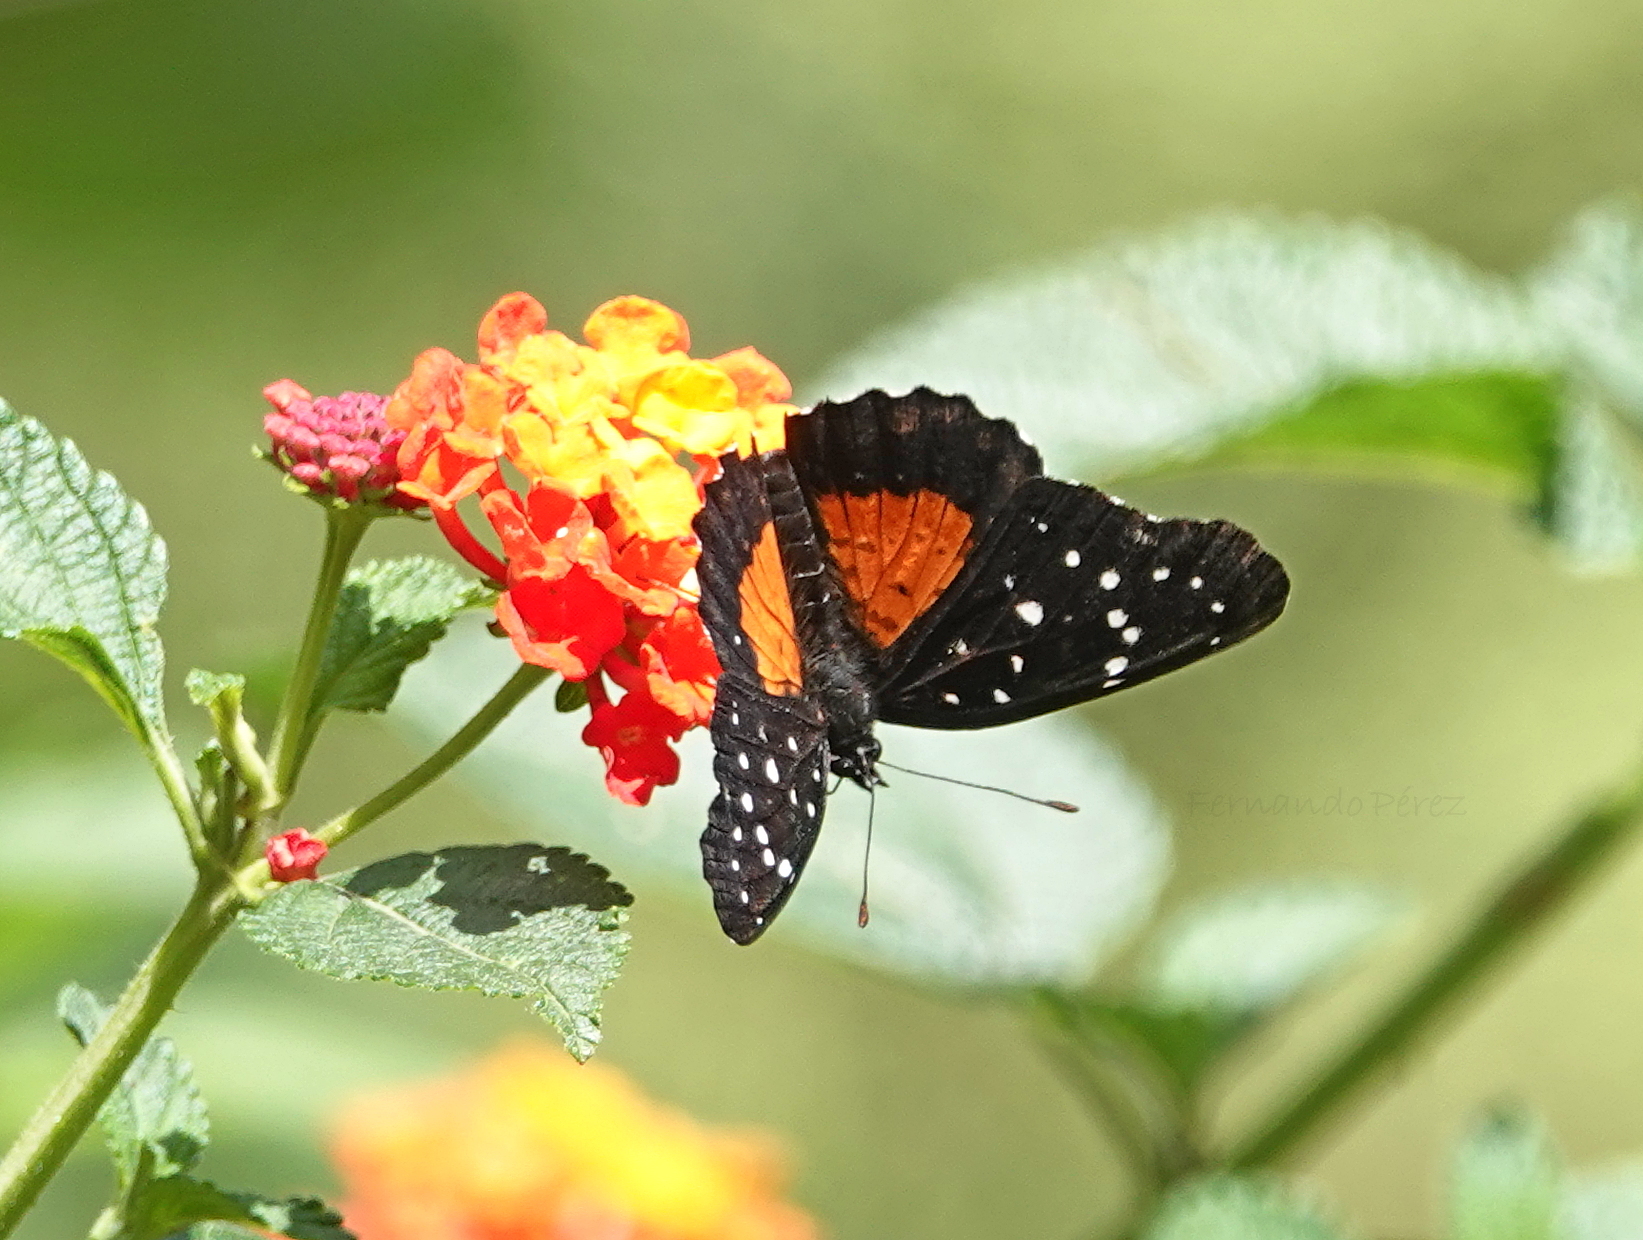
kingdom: Animalia
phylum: Arthropoda
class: Insecta
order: Lepidoptera
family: Nymphalidae
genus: Chlosyne
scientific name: Chlosyne janais
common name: Crimson patch
